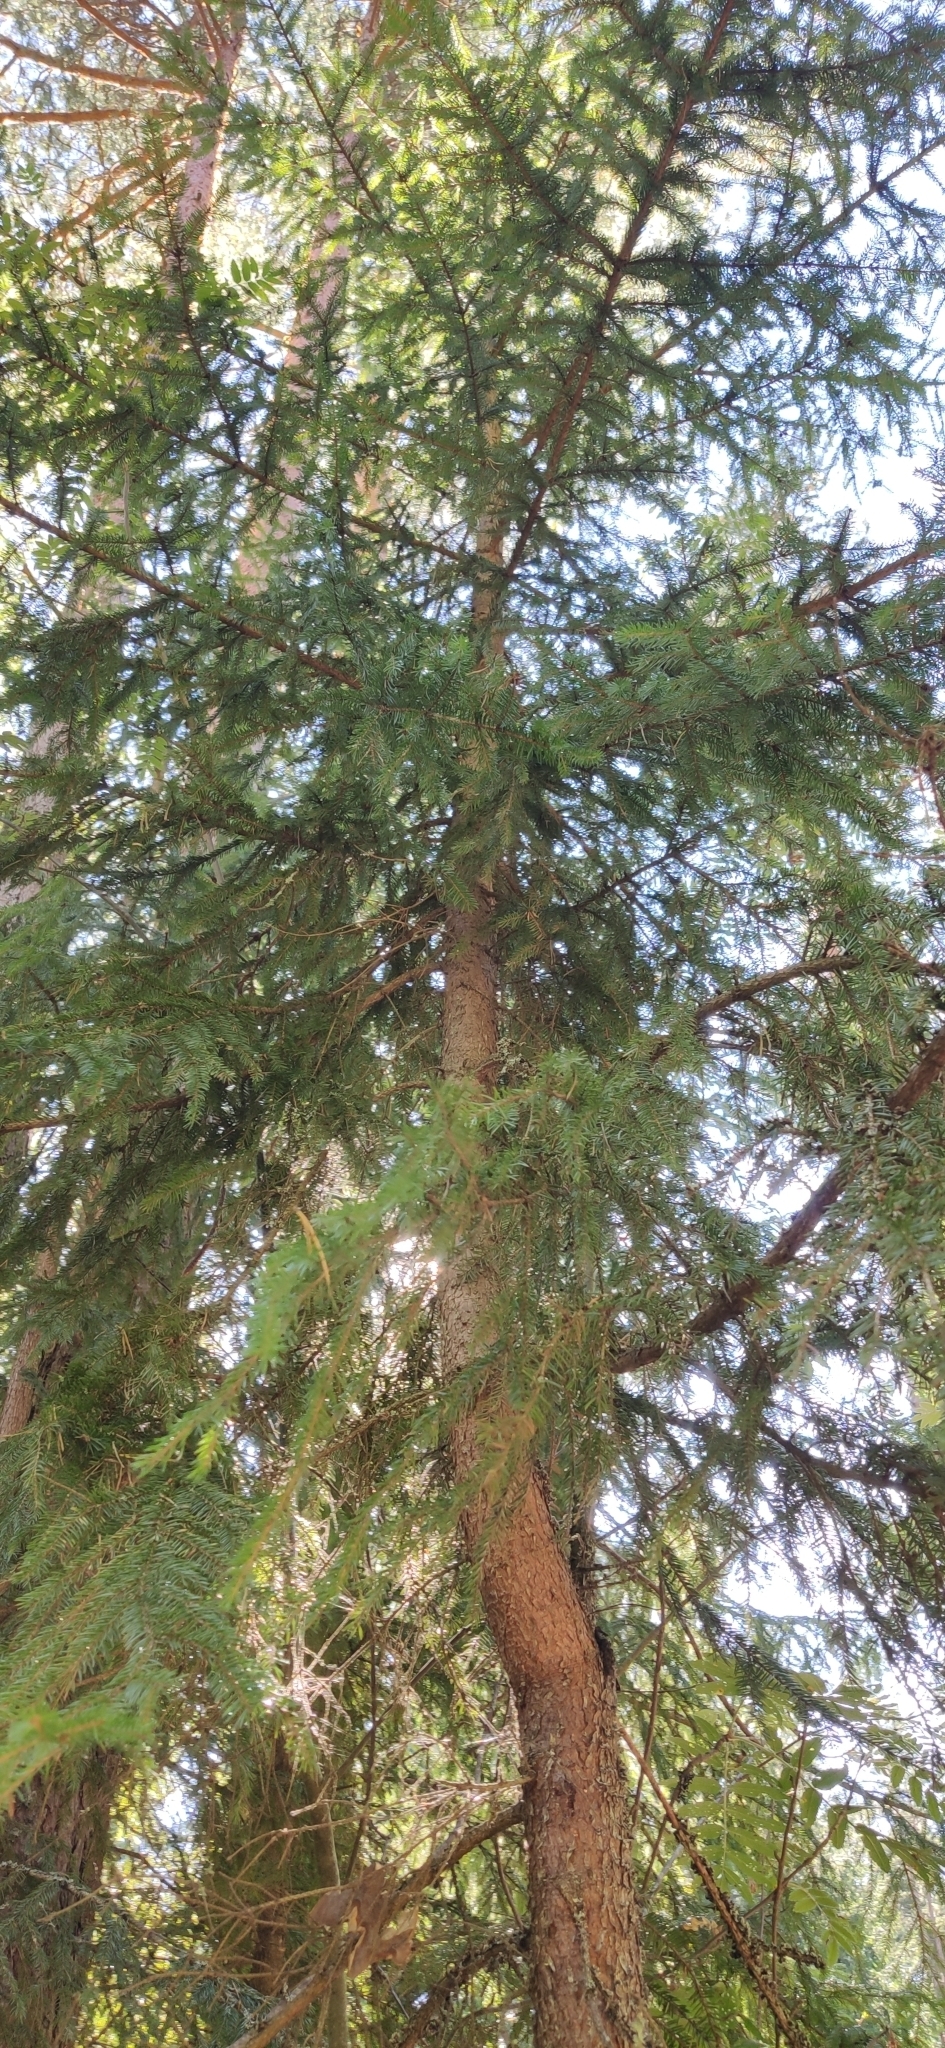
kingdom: Plantae
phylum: Tracheophyta
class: Pinopsida
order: Pinales
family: Pinaceae
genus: Picea
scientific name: Picea abies
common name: Norway spruce
